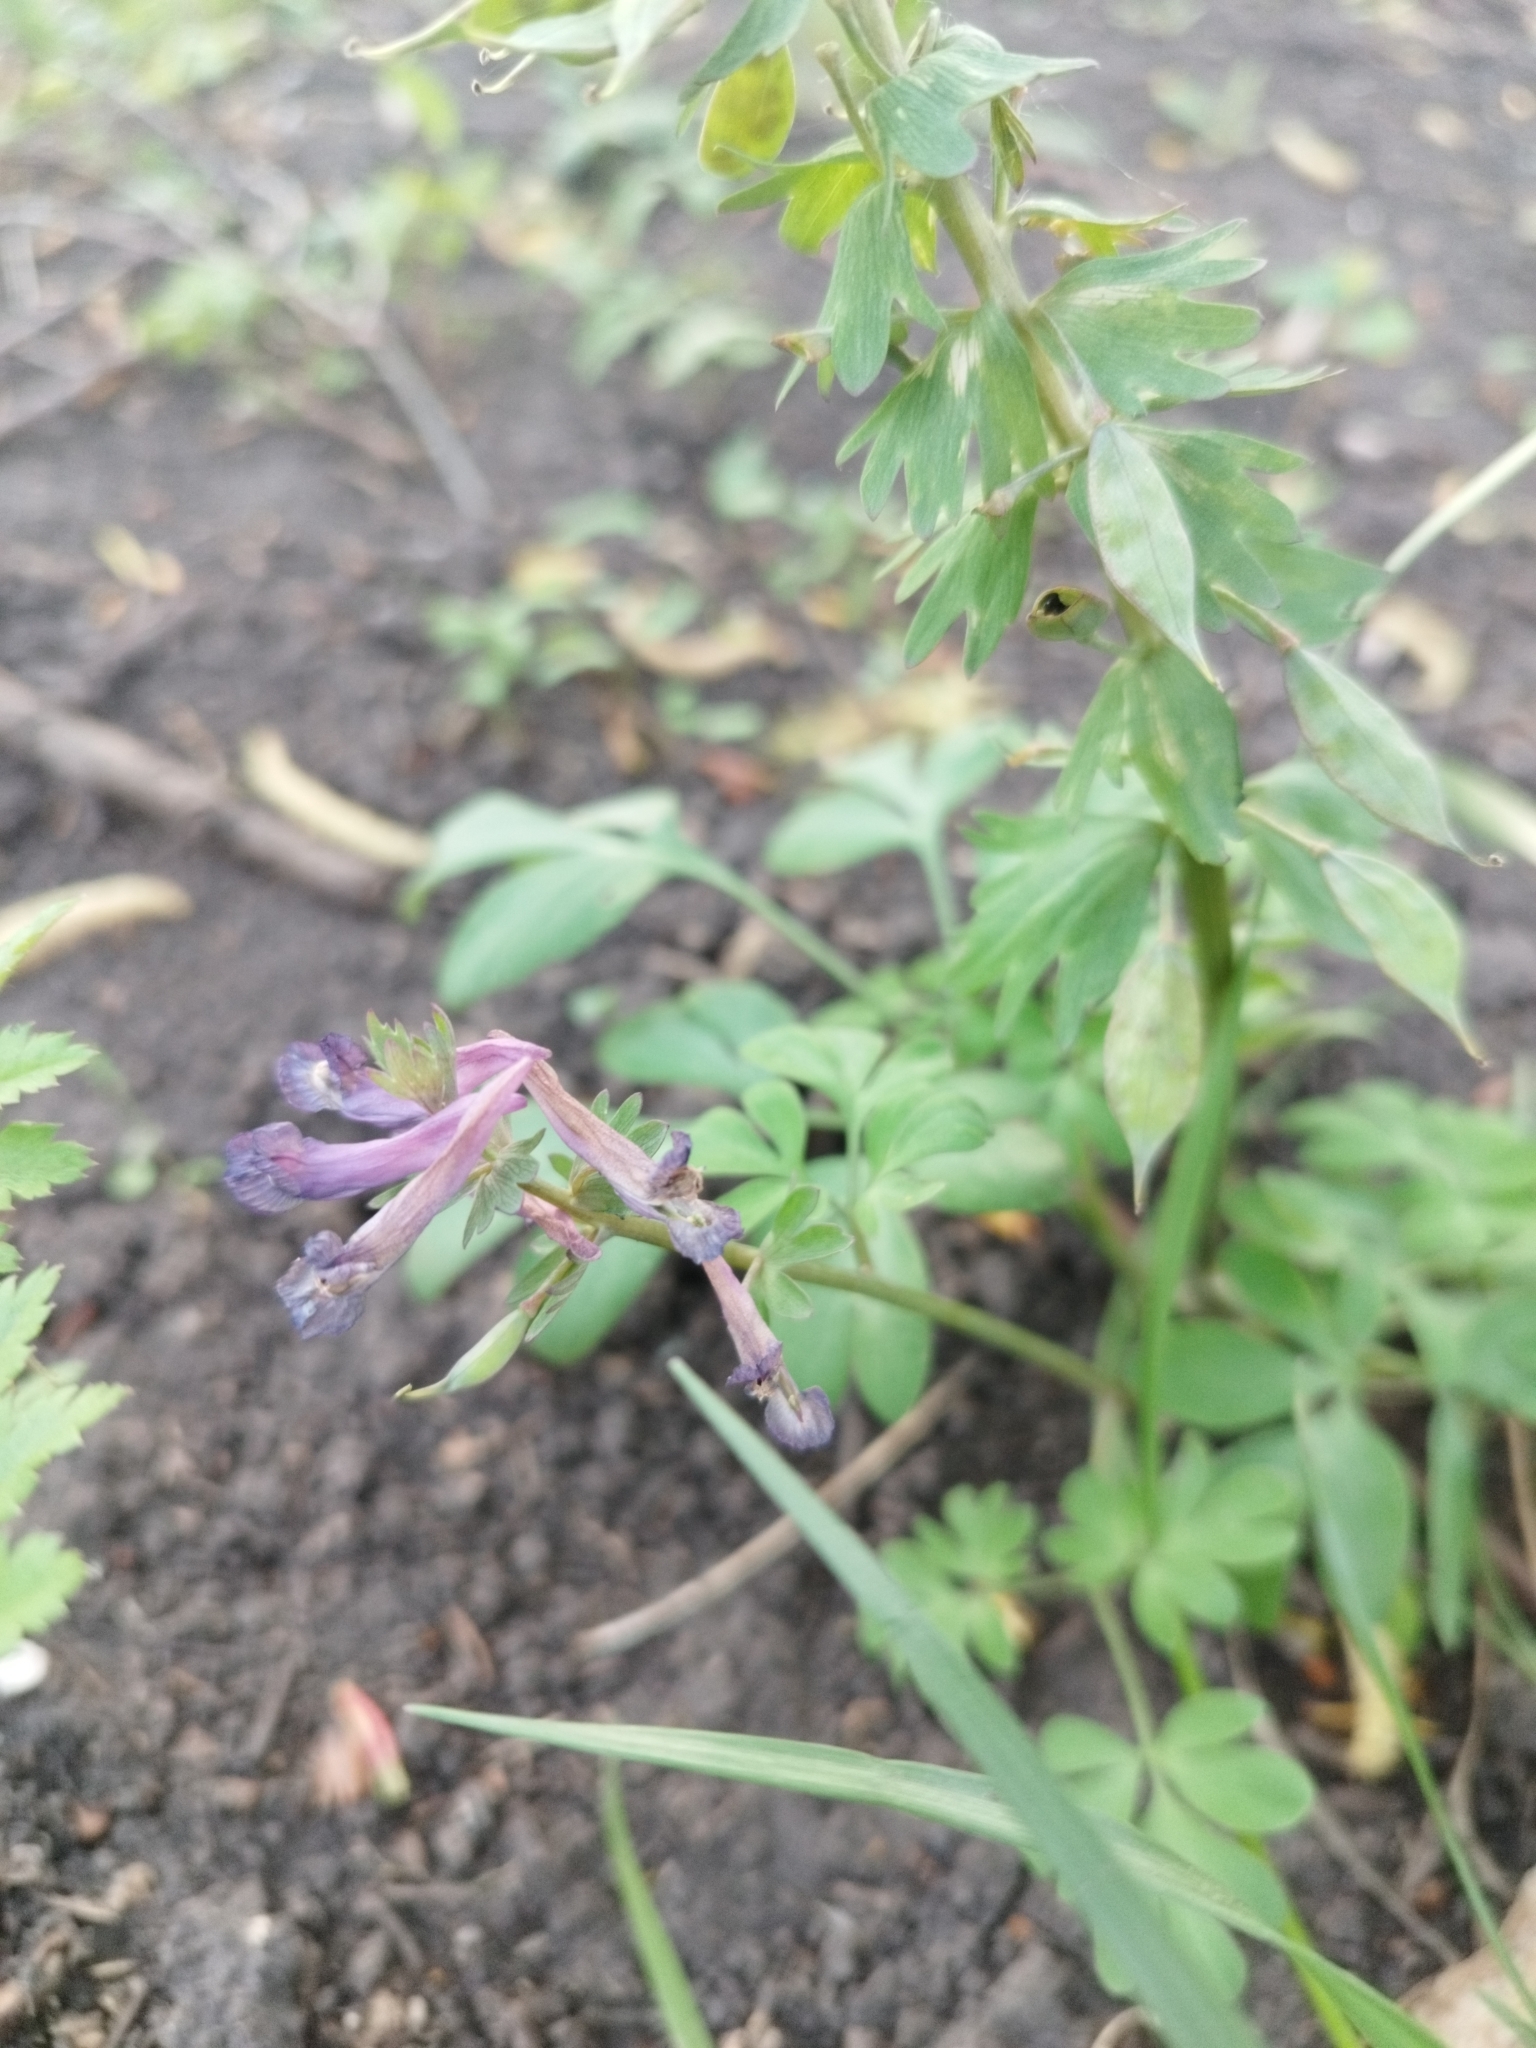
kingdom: Plantae
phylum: Tracheophyta
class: Magnoliopsida
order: Ranunculales
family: Papaveraceae
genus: Corydalis
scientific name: Corydalis solida
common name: Bird-in-a-bush
